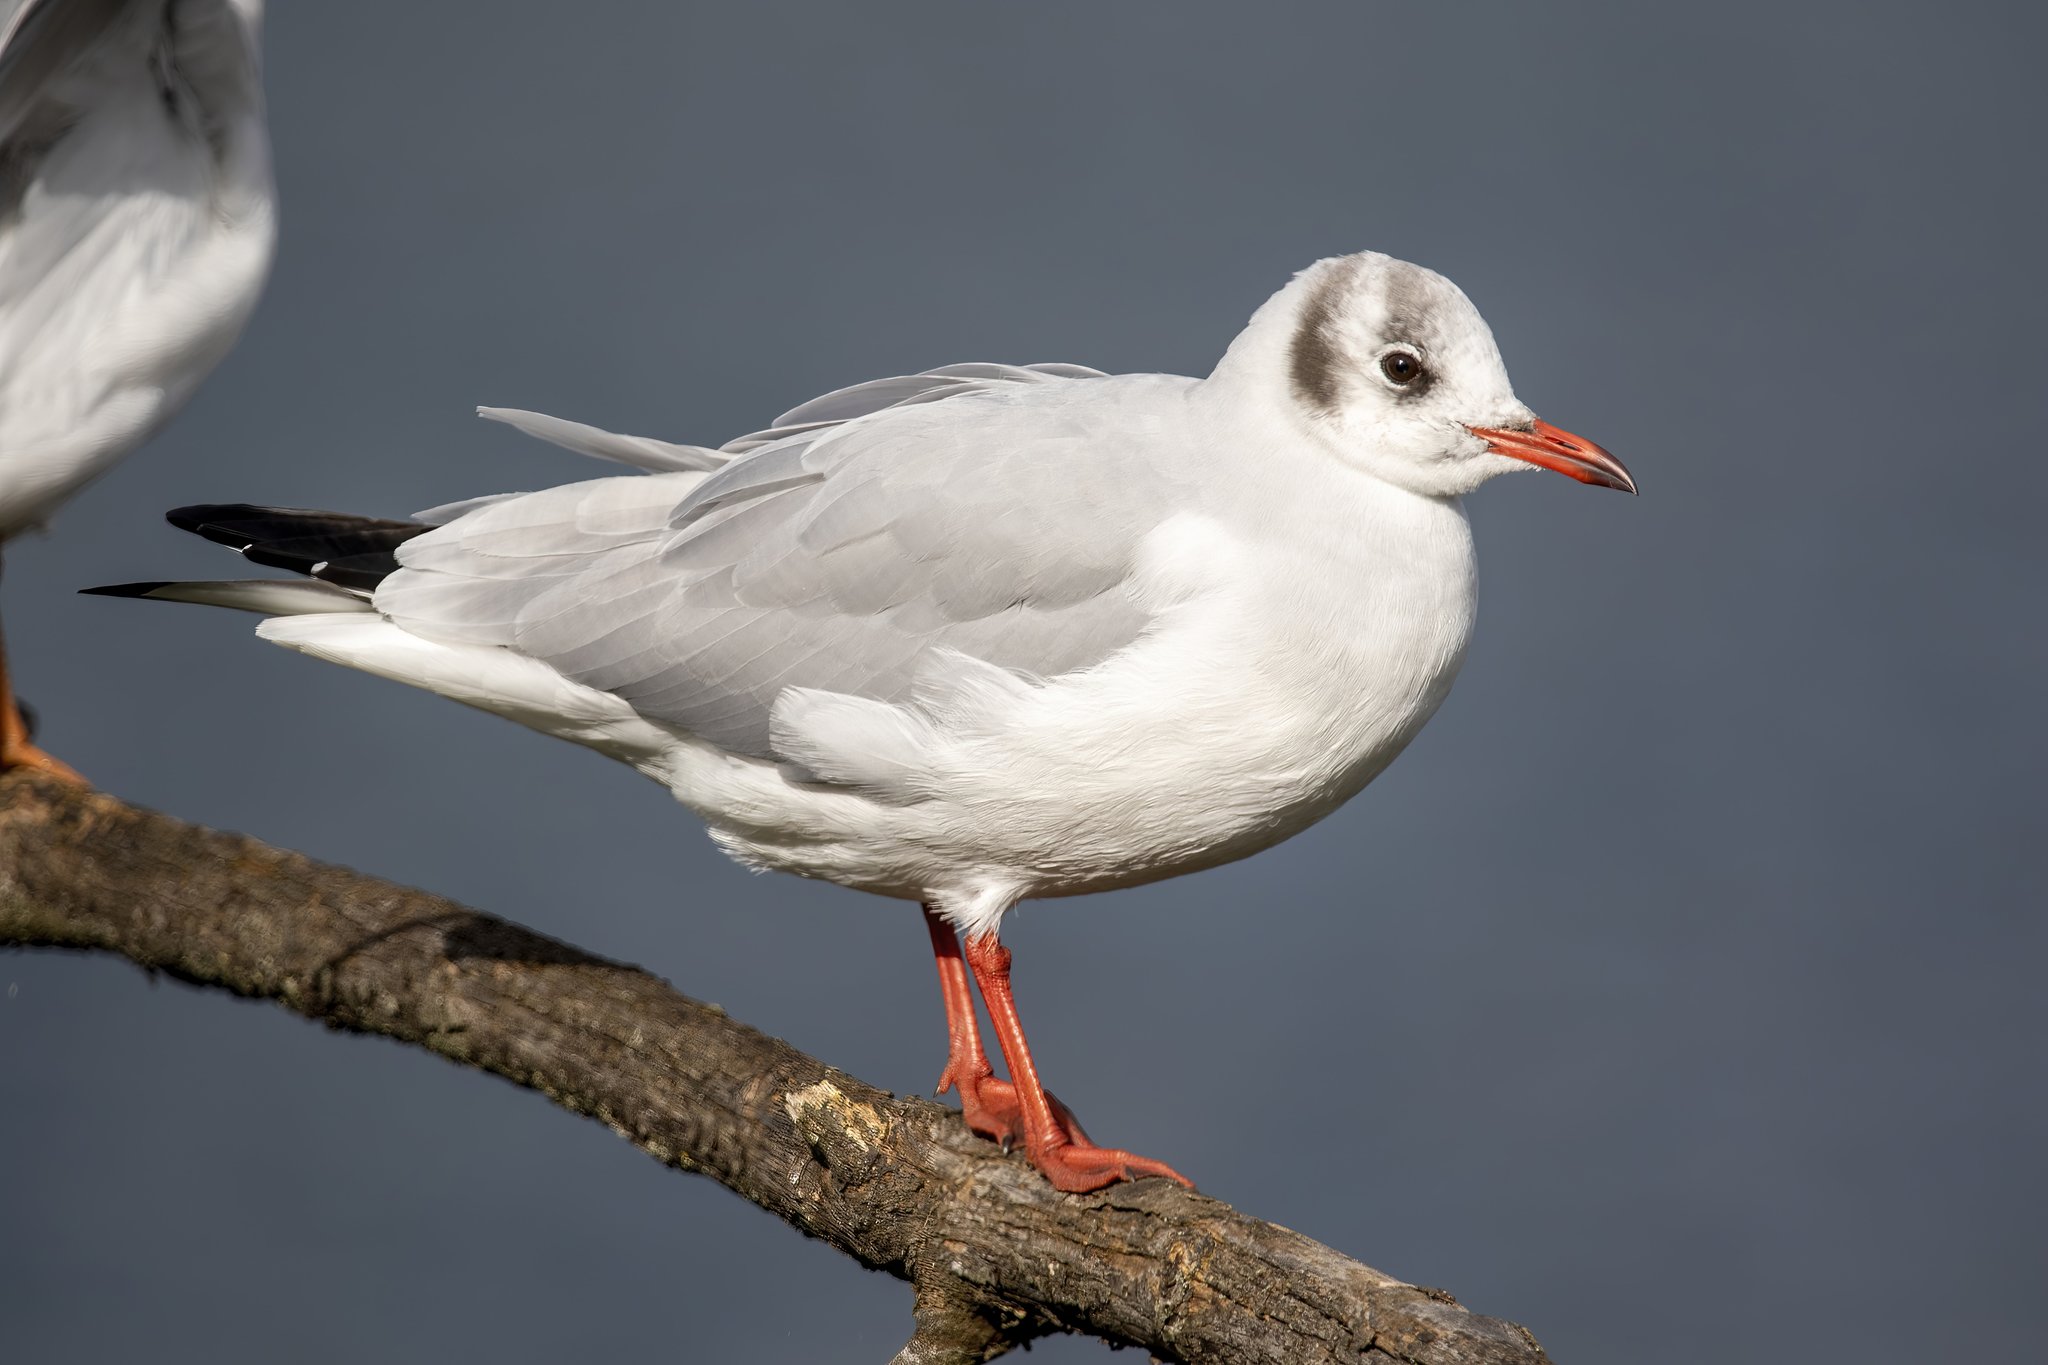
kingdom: Animalia
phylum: Chordata
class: Aves
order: Charadriiformes
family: Laridae
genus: Chroicocephalus
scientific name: Chroicocephalus ridibundus
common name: Black-headed gull
